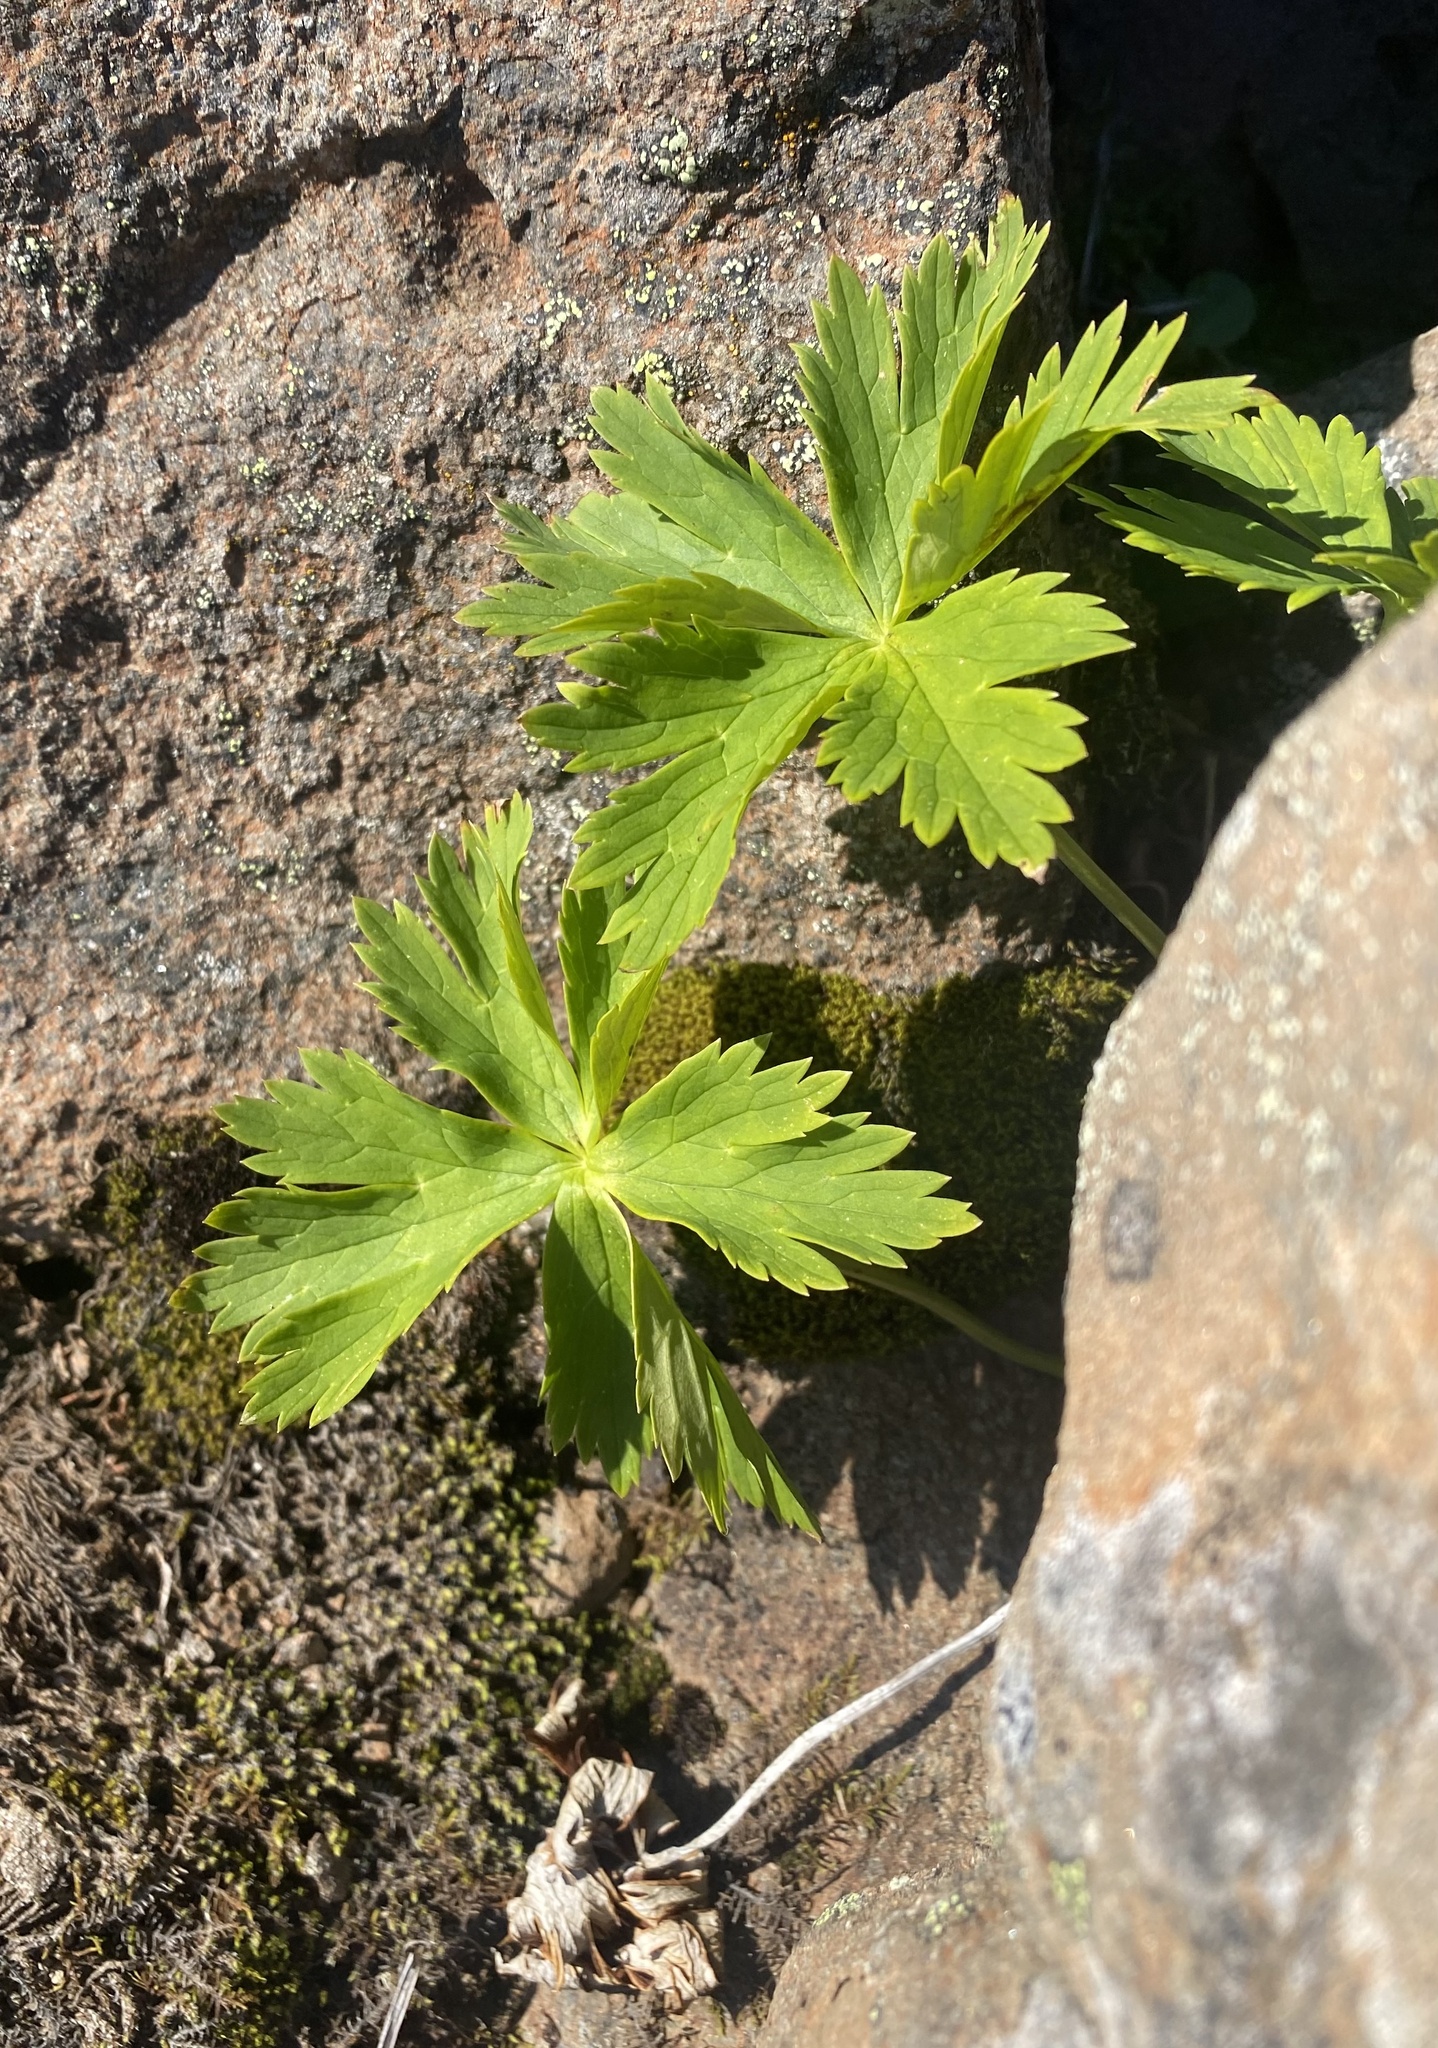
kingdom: Plantae
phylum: Tracheophyta
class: Magnoliopsida
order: Ranunculales
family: Ranunculaceae
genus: Trollius
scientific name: Trollius asiaticus
